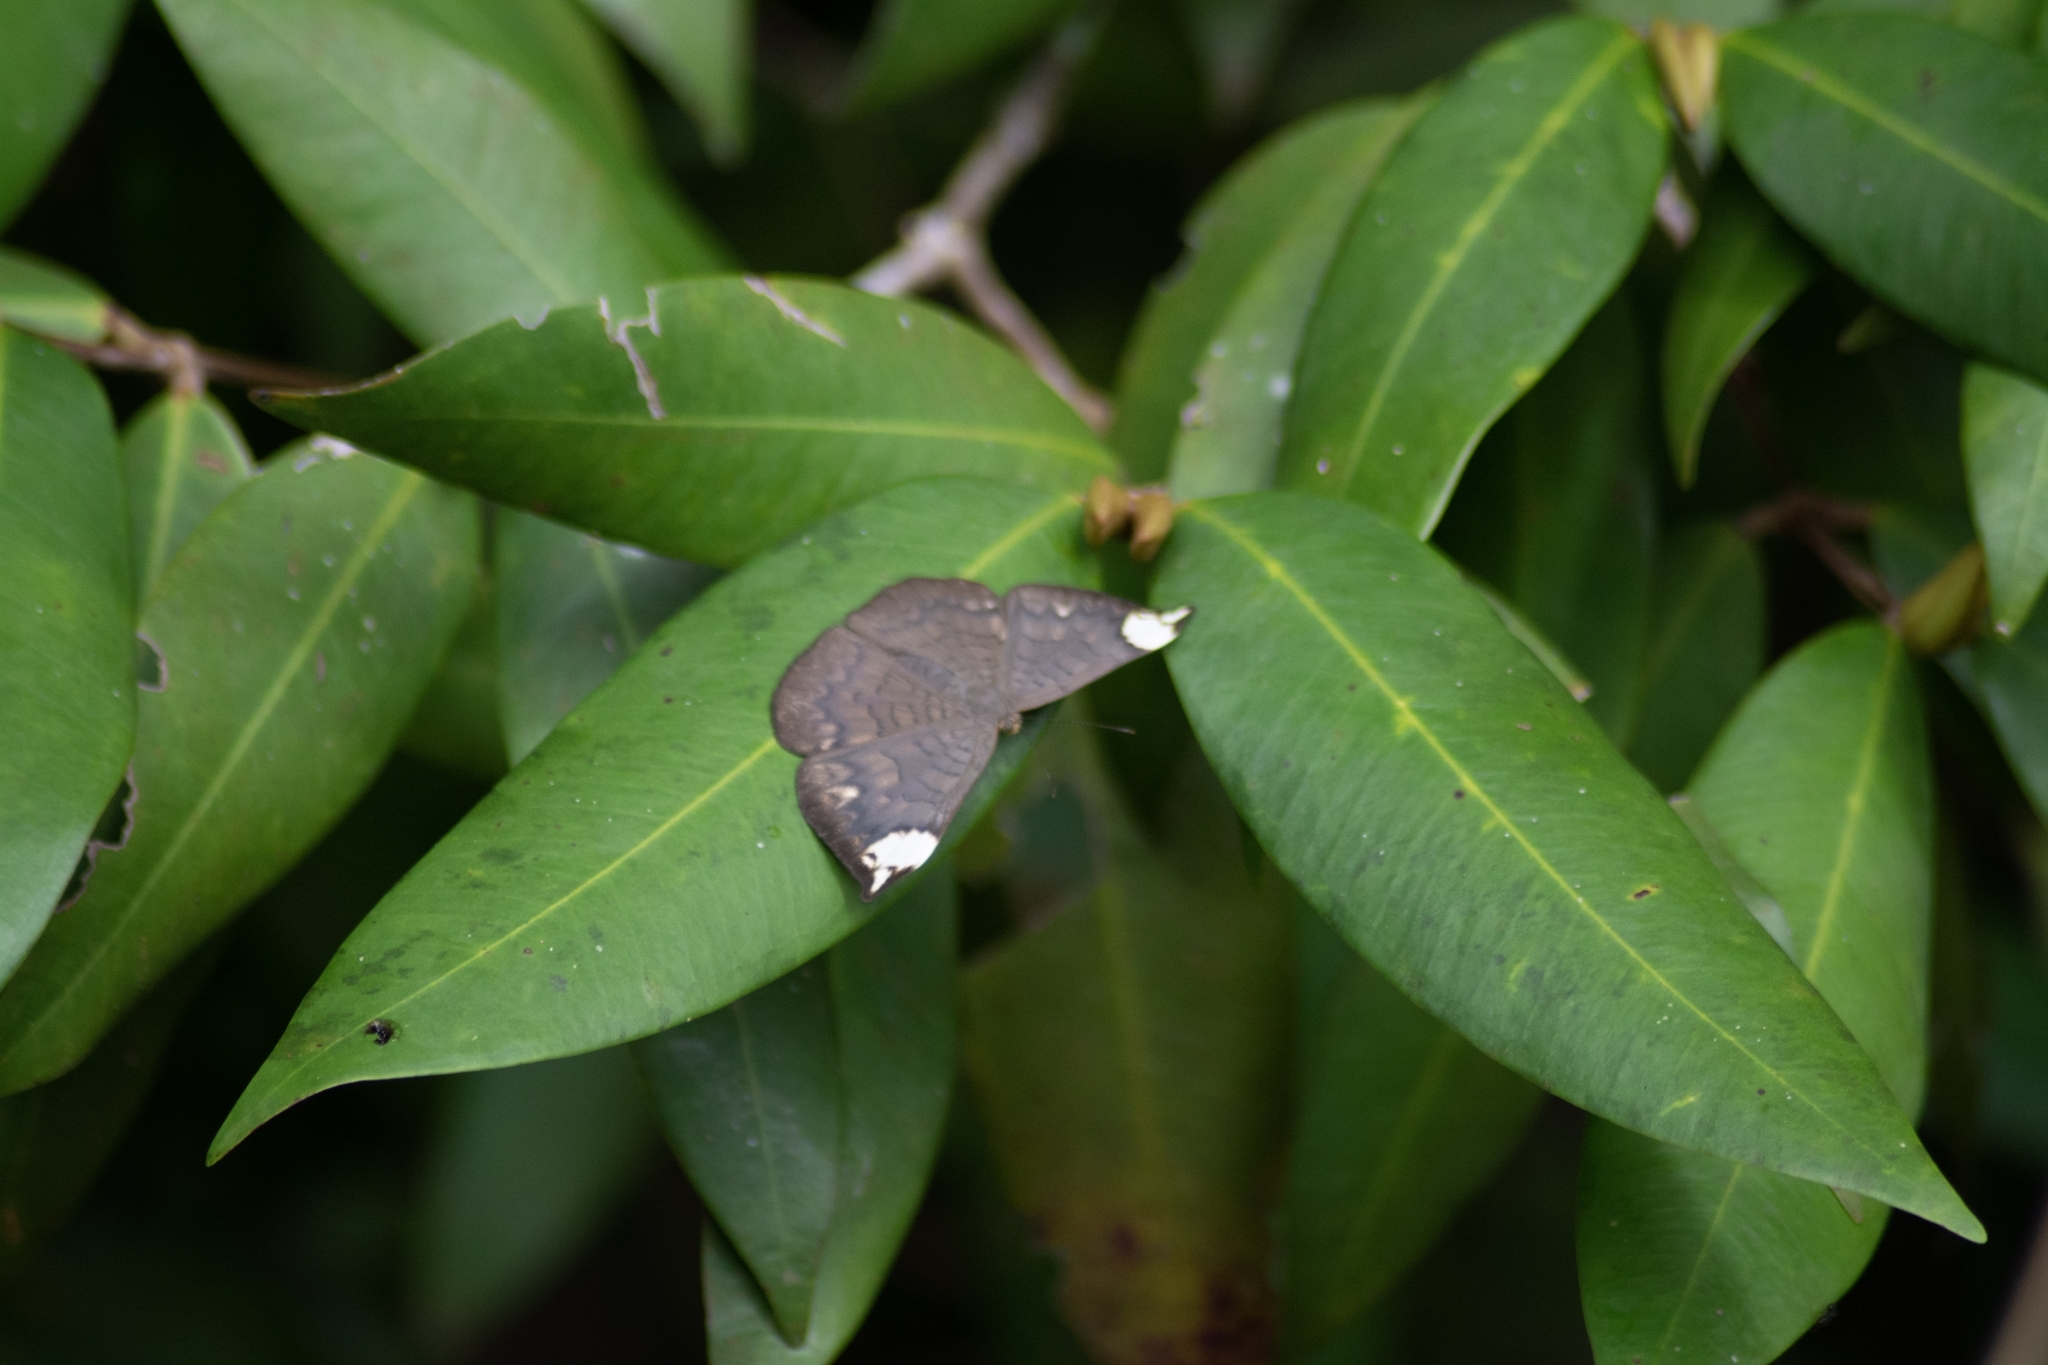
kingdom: Animalia
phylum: Arthropoda
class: Insecta
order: Lepidoptera
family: Lycaenidae
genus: Emesis
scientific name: Emesis lucinda
